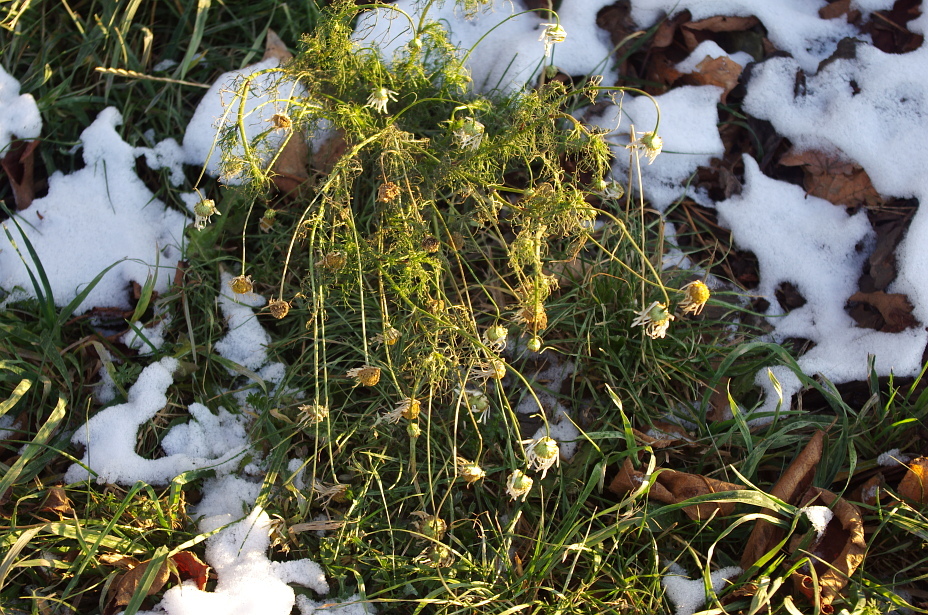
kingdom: Plantae
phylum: Tracheophyta
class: Magnoliopsida
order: Asterales
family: Asteraceae
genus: Tripleurospermum
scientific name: Tripleurospermum inodorum
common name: Scentless mayweed
